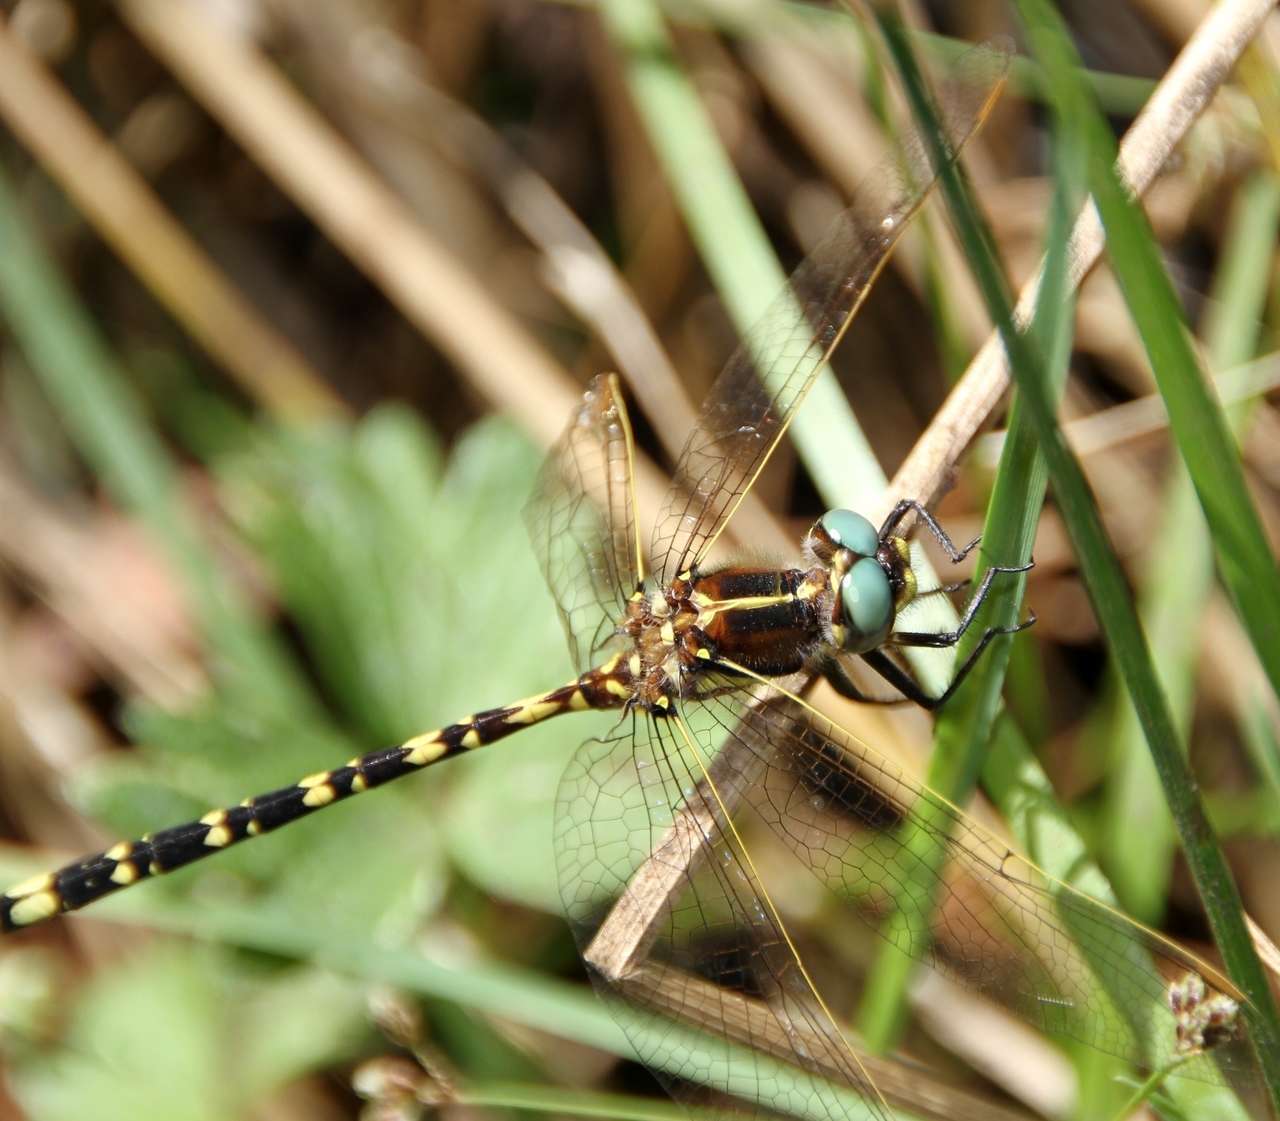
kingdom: Animalia
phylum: Arthropoda
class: Insecta
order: Odonata
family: Synthemistidae
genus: Synthemis
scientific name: Synthemis eustalacta
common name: Swamp tigertail
